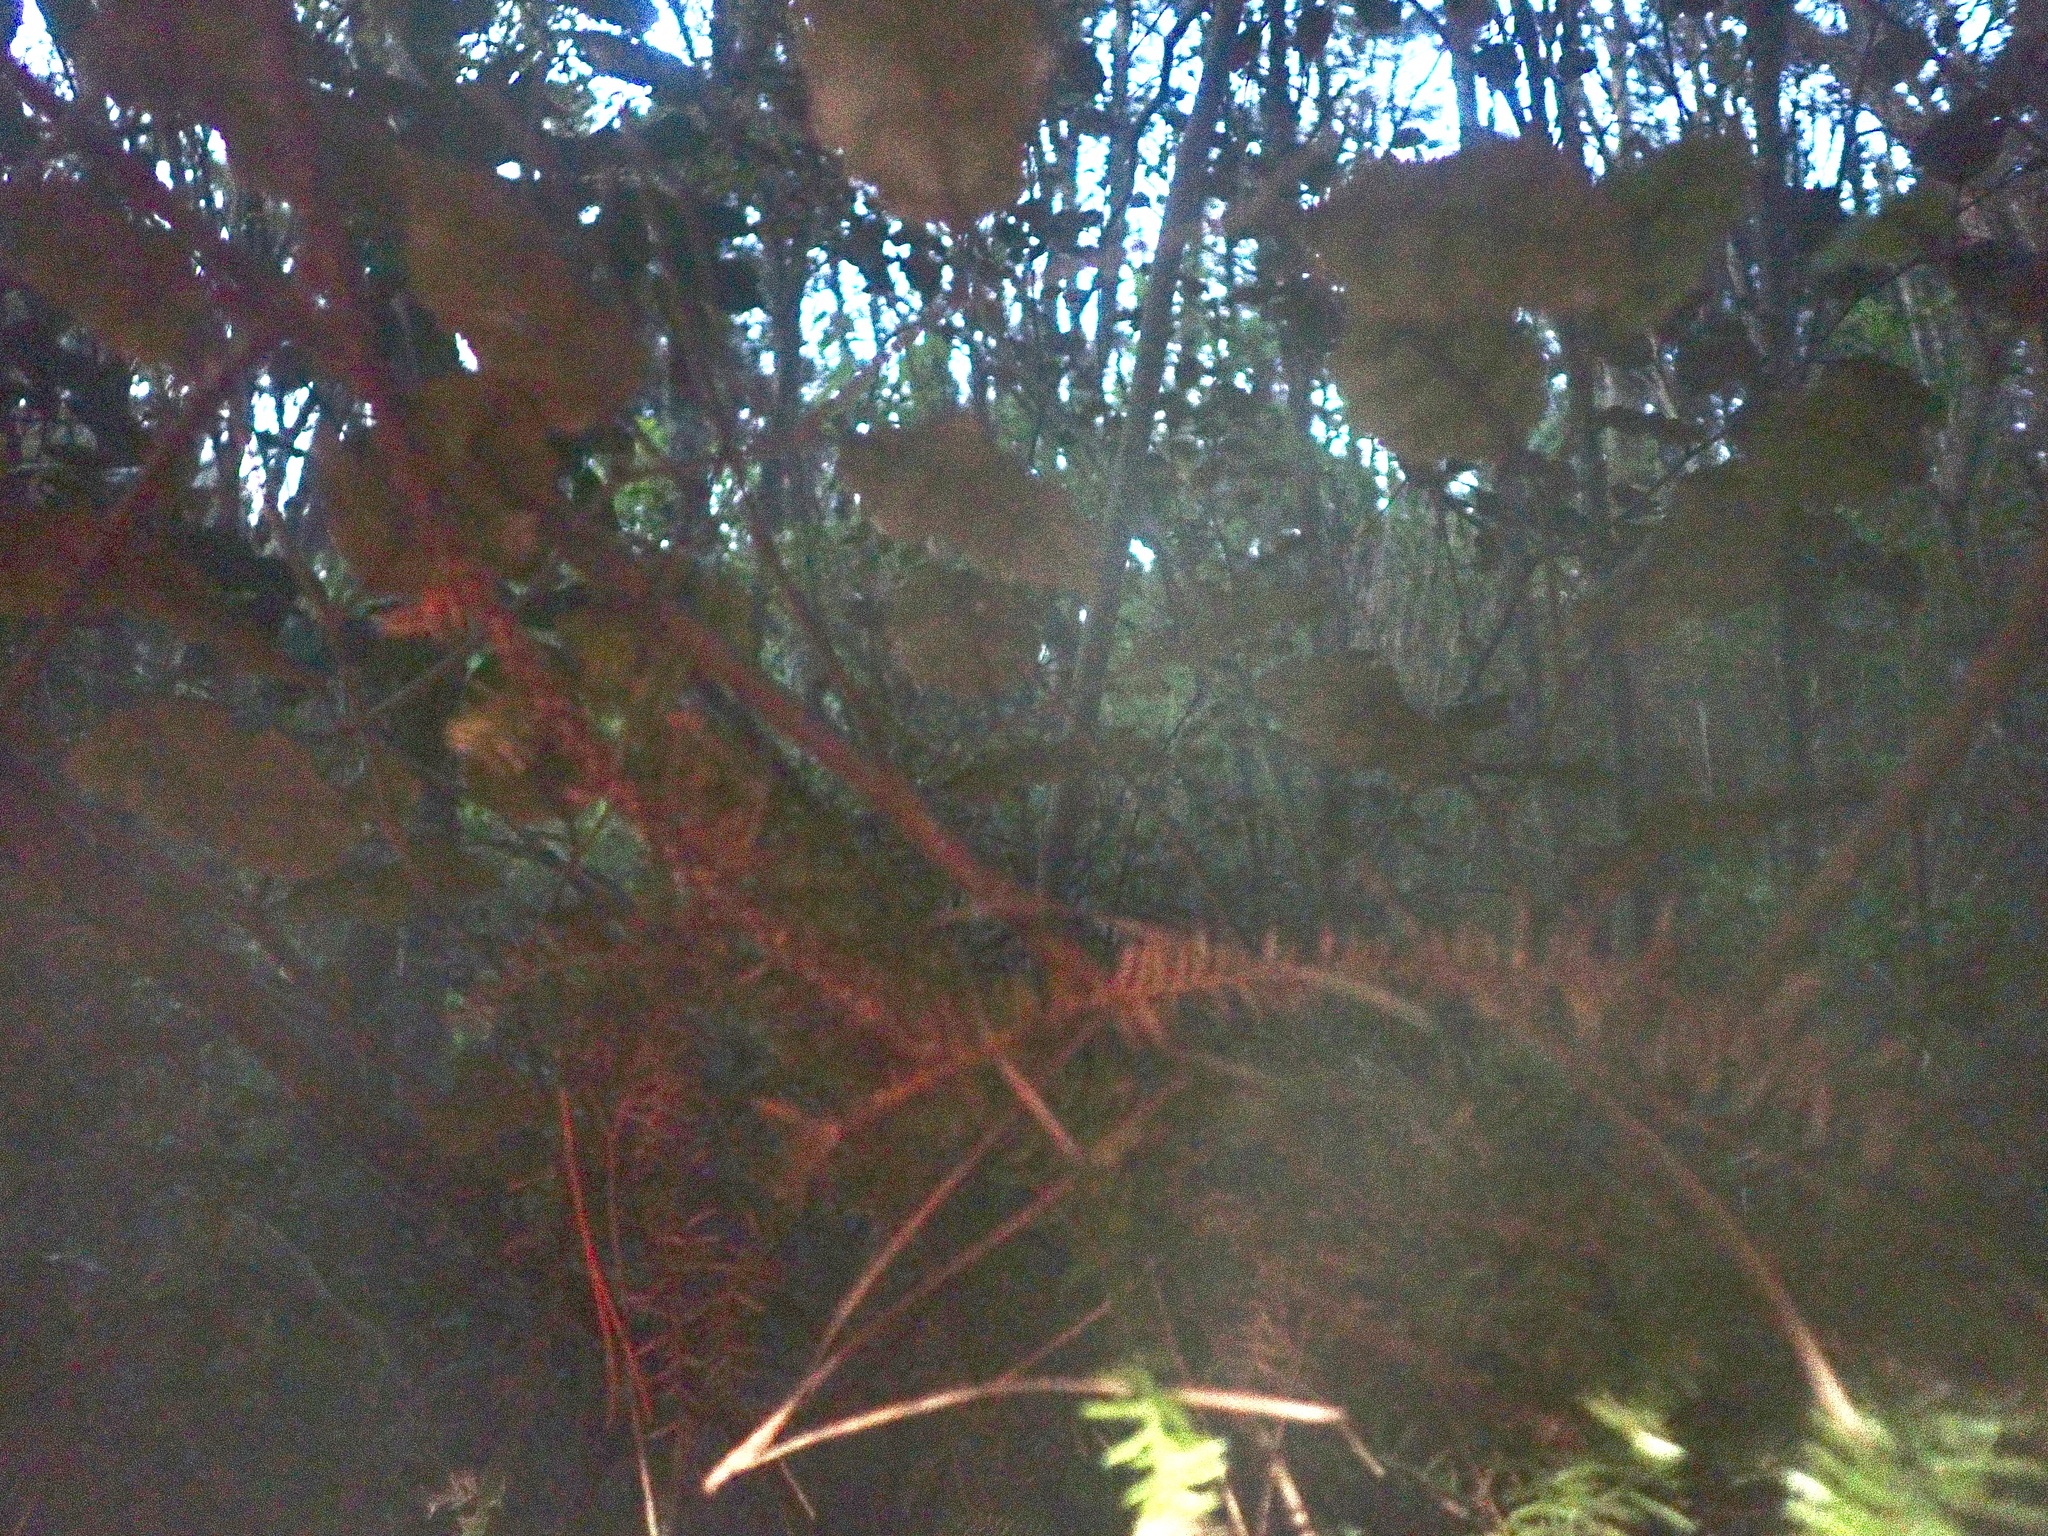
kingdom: Plantae
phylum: Tracheophyta
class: Magnoliopsida
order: Asterales
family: Rousseaceae
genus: Carpodetus
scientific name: Carpodetus serratus
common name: White mapau
